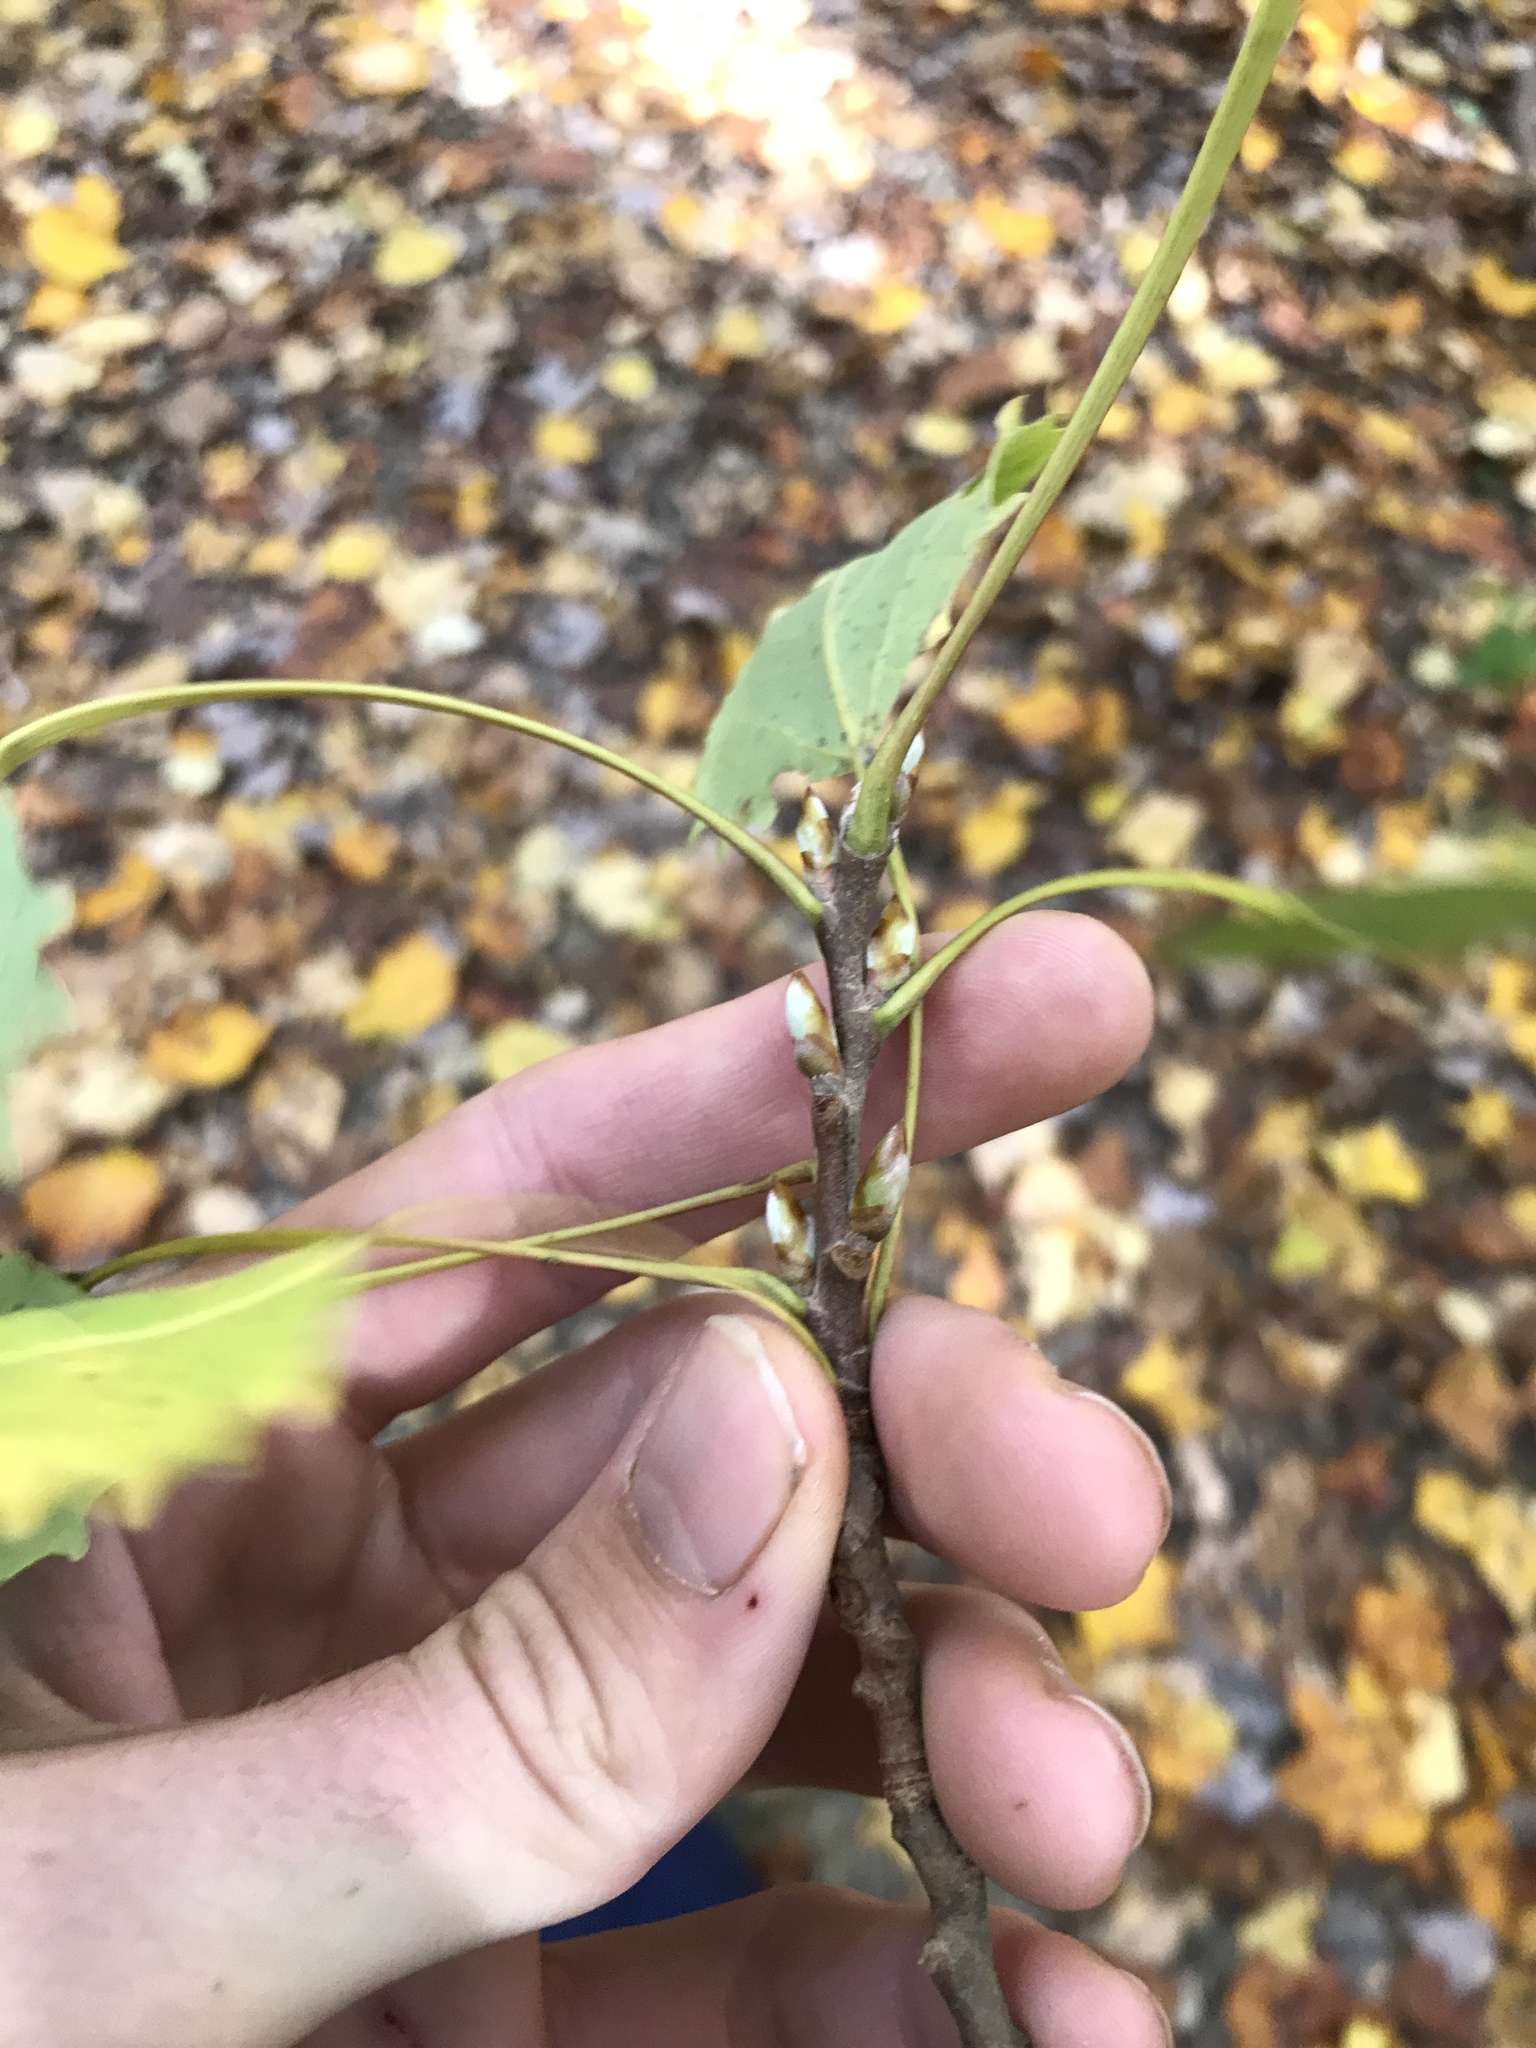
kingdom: Plantae
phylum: Tracheophyta
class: Magnoliopsida
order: Malpighiales
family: Salicaceae
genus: Populus
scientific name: Populus grandidentata
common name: Bigtooth aspen
